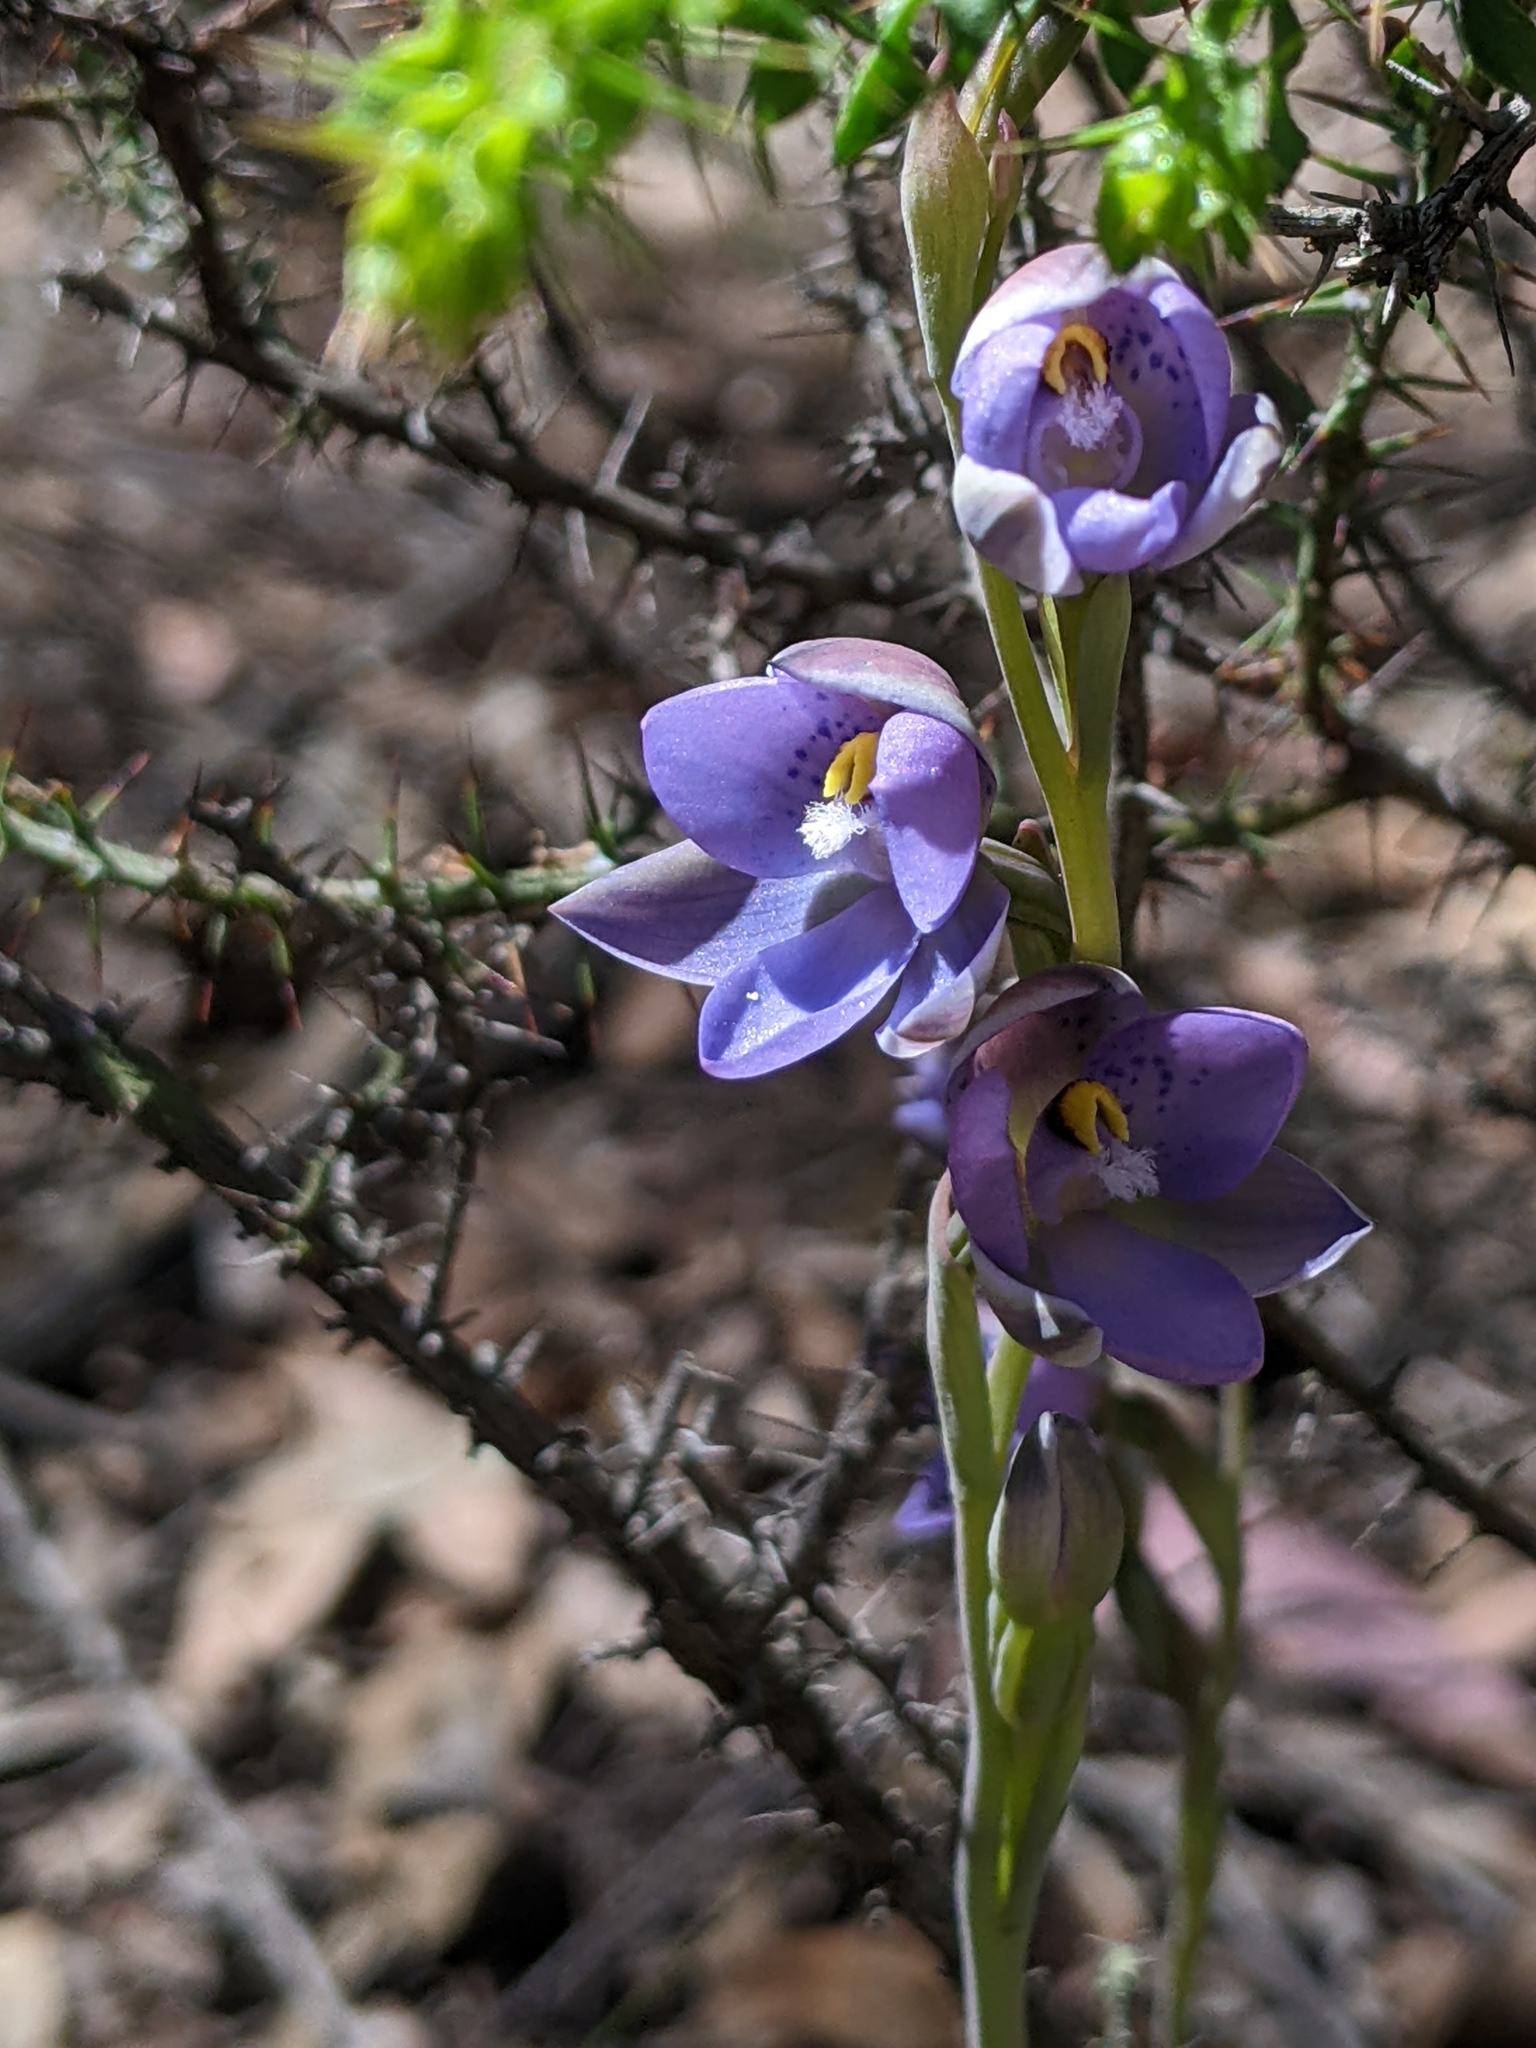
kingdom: Plantae
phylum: Tracheophyta
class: Liliopsida
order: Asparagales
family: Orchidaceae
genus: Thelymitra
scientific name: Thelymitra truncata
